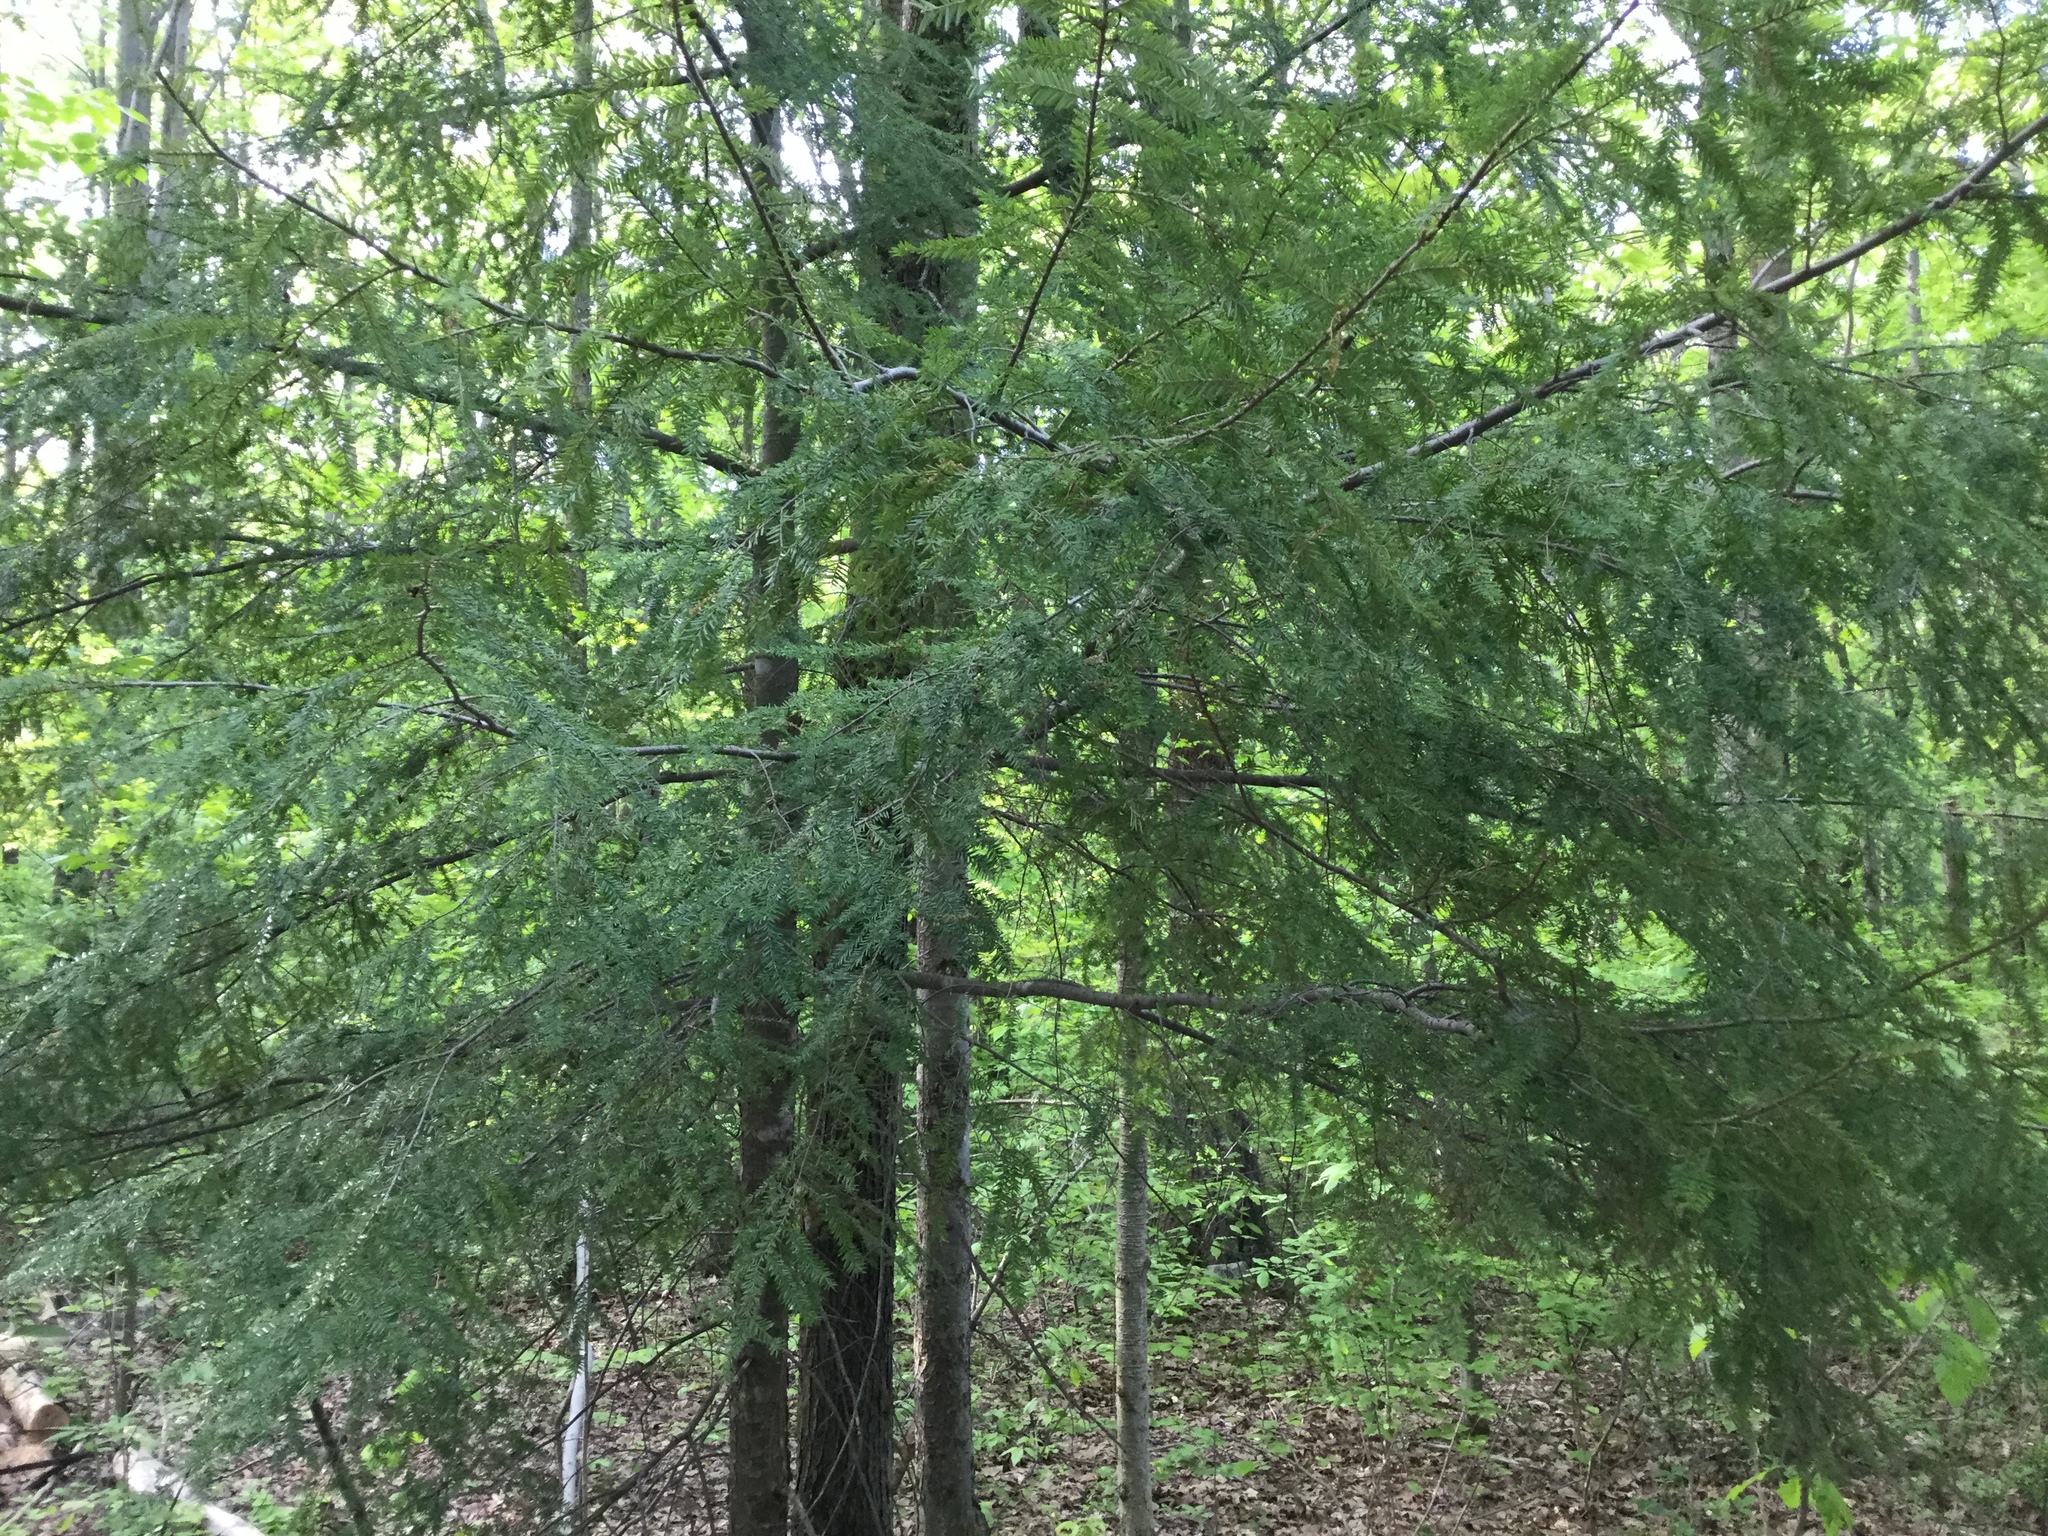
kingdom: Plantae
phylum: Tracheophyta
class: Pinopsida
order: Pinales
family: Pinaceae
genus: Tsuga
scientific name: Tsuga canadensis
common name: Eastern hemlock
